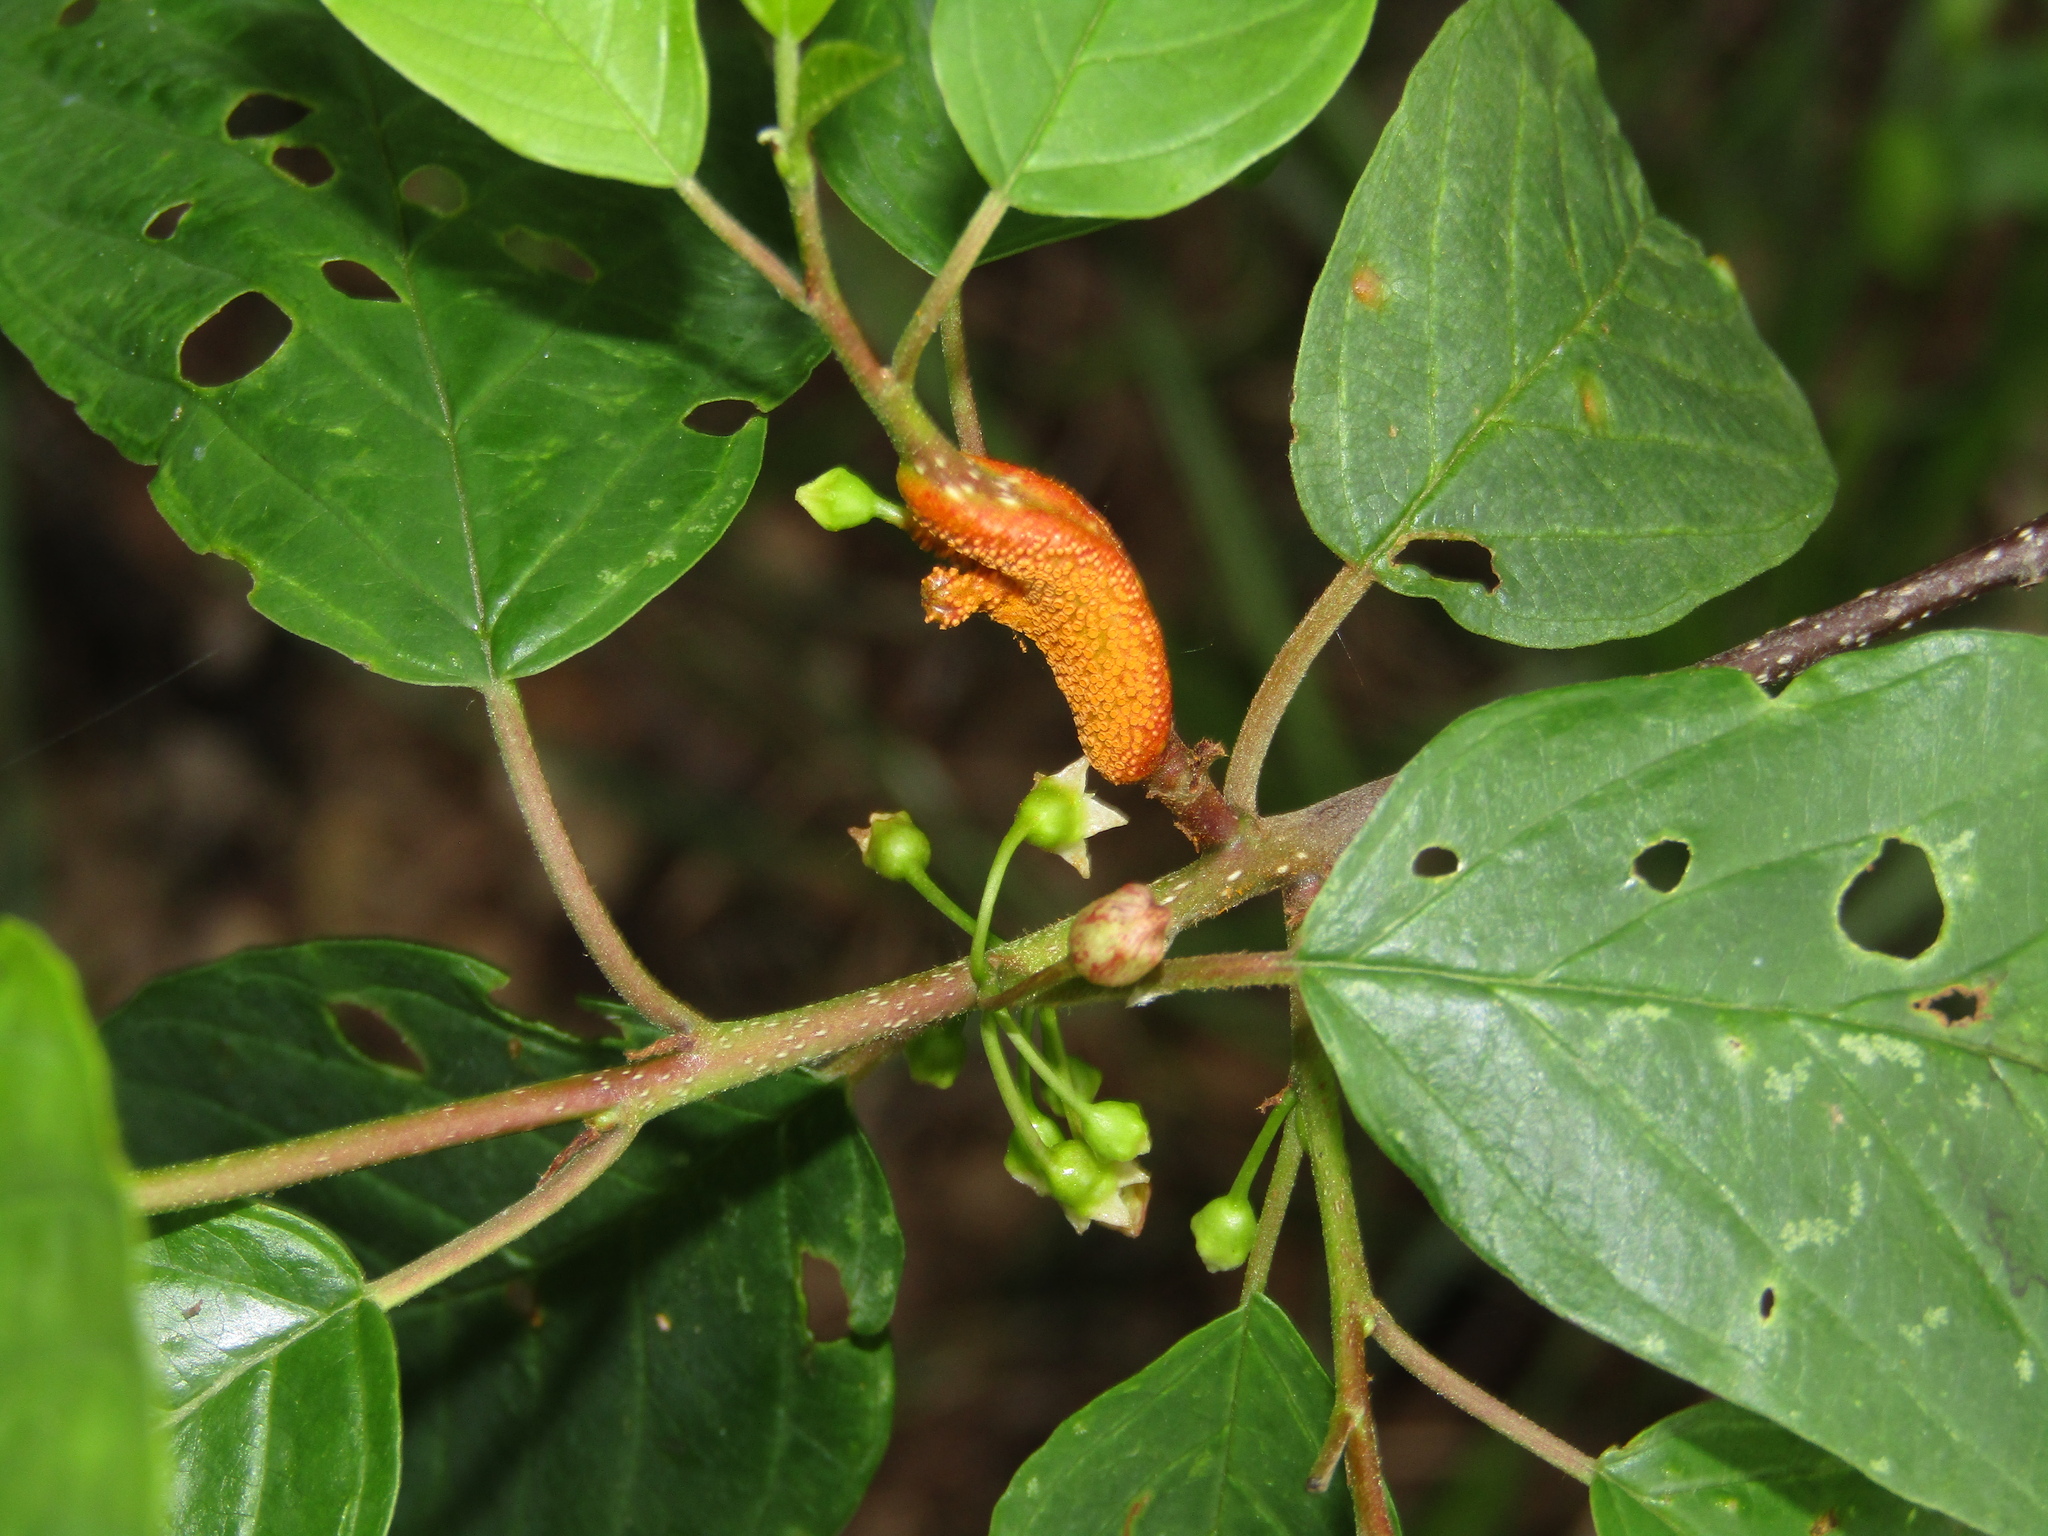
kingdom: Fungi
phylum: Basidiomycota
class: Pucciniomycetes
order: Pucciniales
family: Pucciniaceae
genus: Puccinia
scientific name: Puccinia coronata
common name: Crown rust
